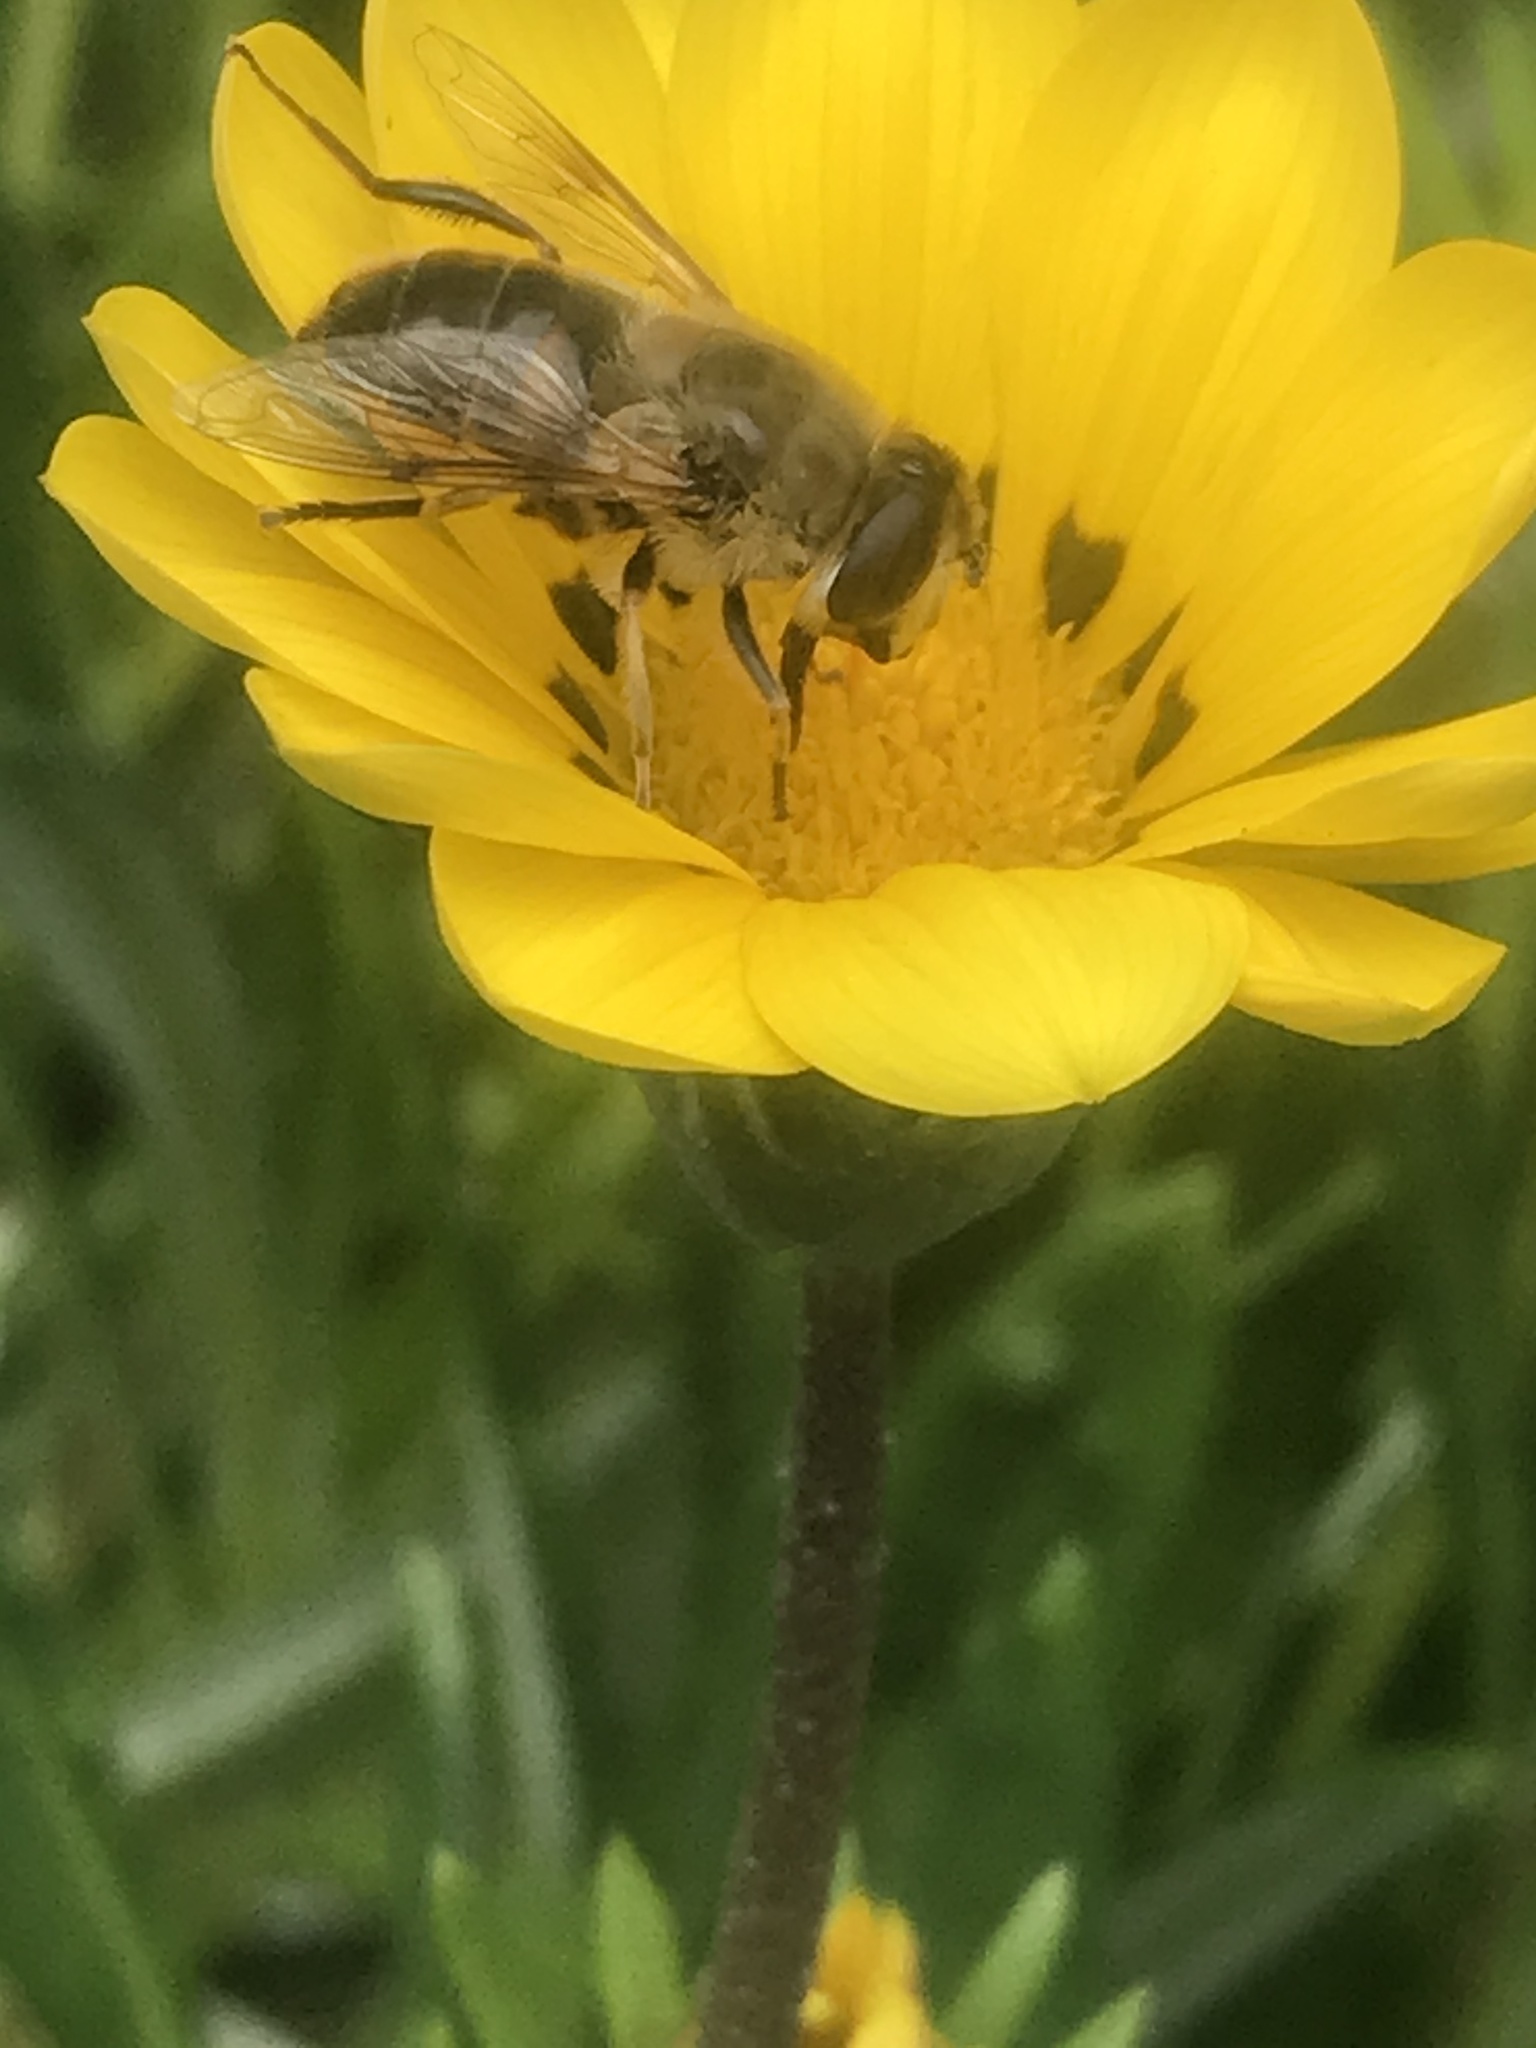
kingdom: Animalia
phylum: Arthropoda
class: Insecta
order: Diptera
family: Syrphidae
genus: Eristalis
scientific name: Eristalis tenax
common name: Drone fly
